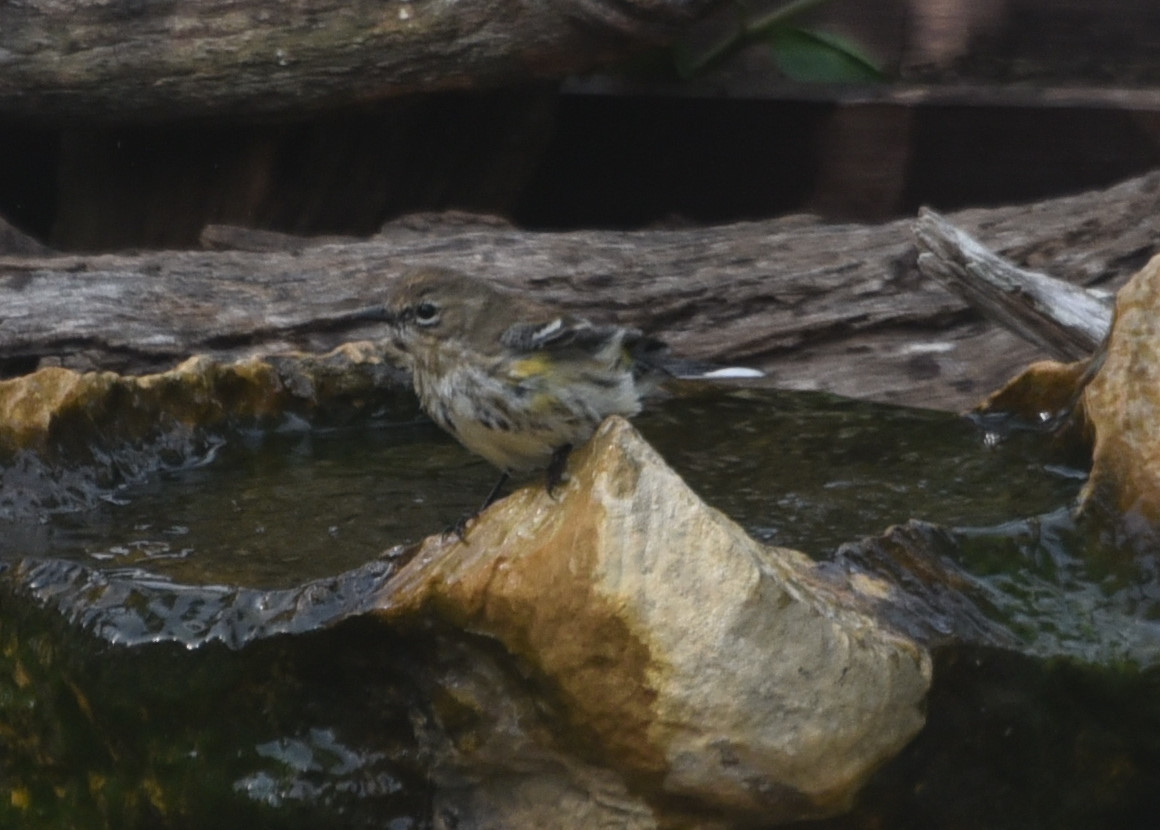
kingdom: Animalia
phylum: Chordata
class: Aves
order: Passeriformes
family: Parulidae
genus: Setophaga
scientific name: Setophaga coronata
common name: Myrtle warbler
